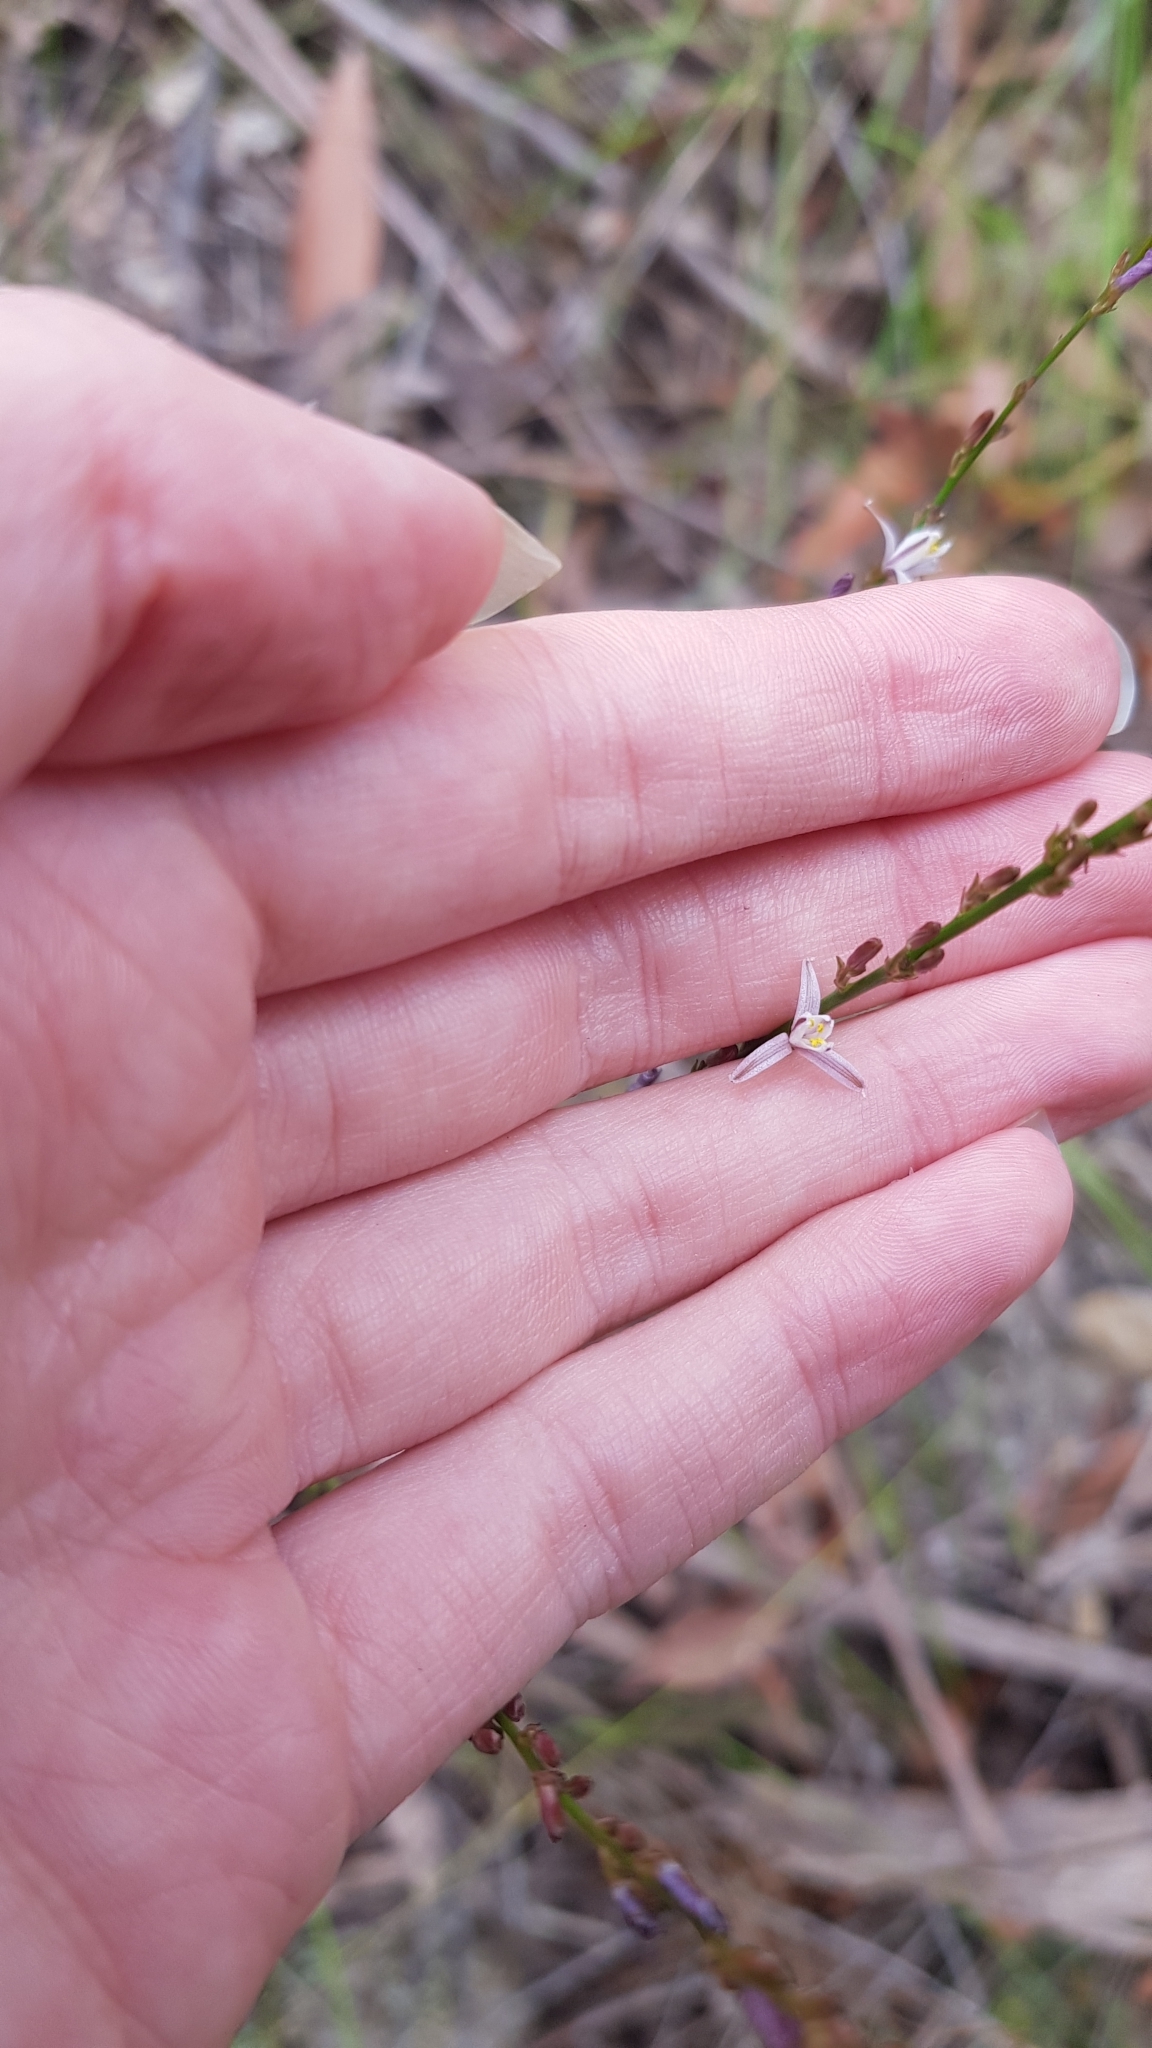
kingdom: Plantae
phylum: Tracheophyta
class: Liliopsida
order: Asparagales
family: Asphodelaceae
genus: Caesia
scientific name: Caesia parviflora
